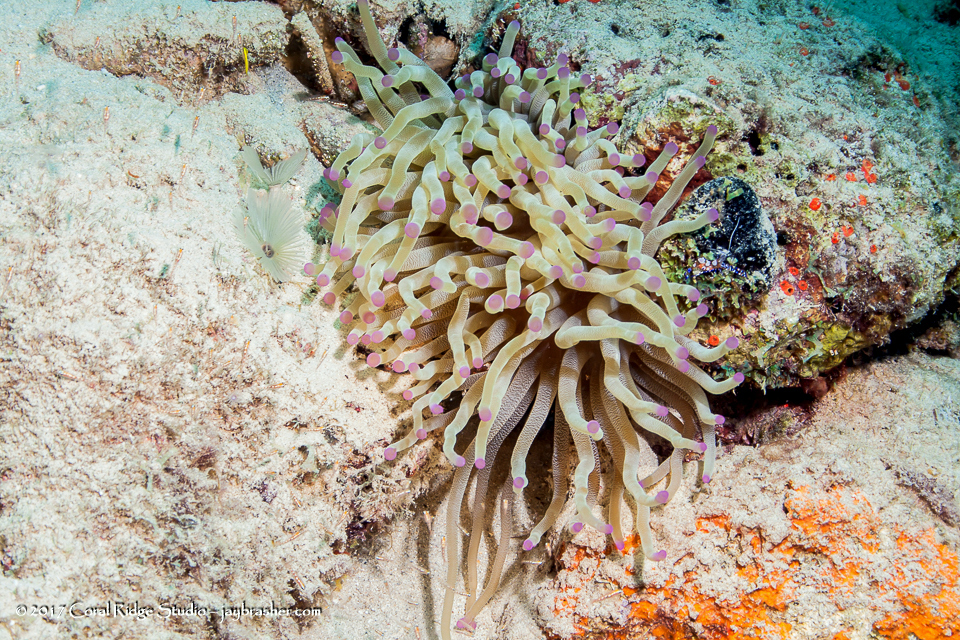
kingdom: Animalia
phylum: Cnidaria
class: Anthozoa
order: Actiniaria
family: Actiniidae
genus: Condylactis
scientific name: Condylactis gigantea
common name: Giant caribbean anemone
